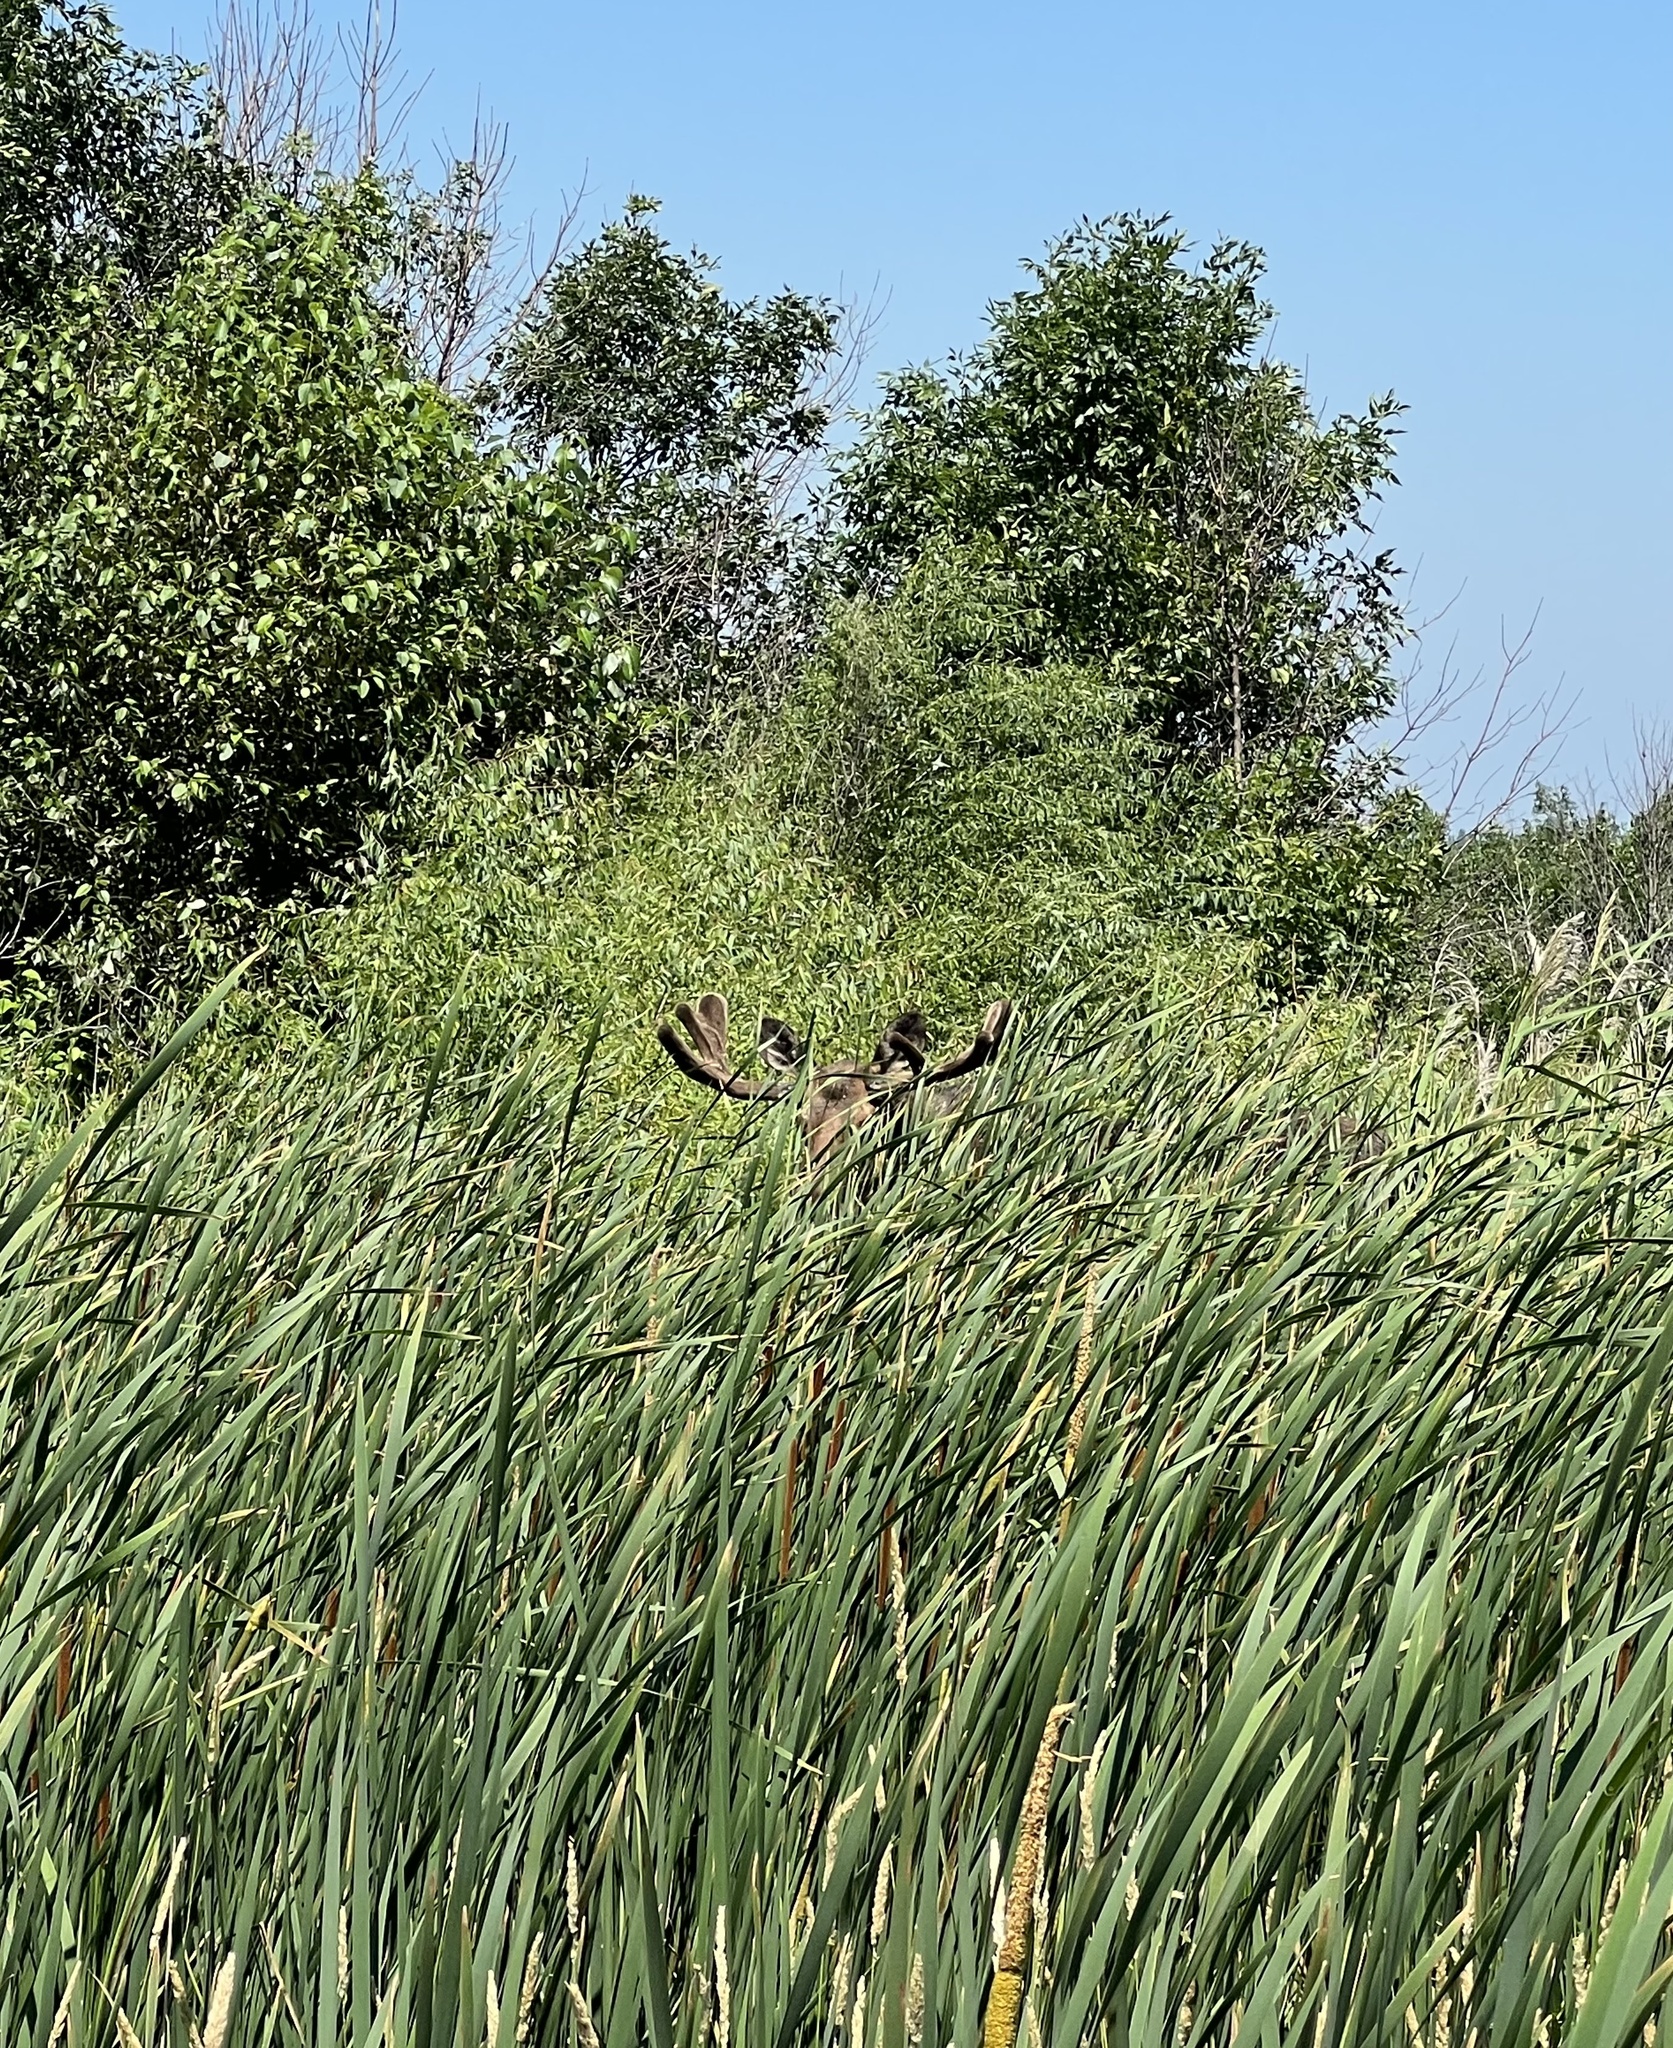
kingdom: Animalia
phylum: Chordata
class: Mammalia
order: Artiodactyla
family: Cervidae
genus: Alces
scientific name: Alces alces
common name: Moose
